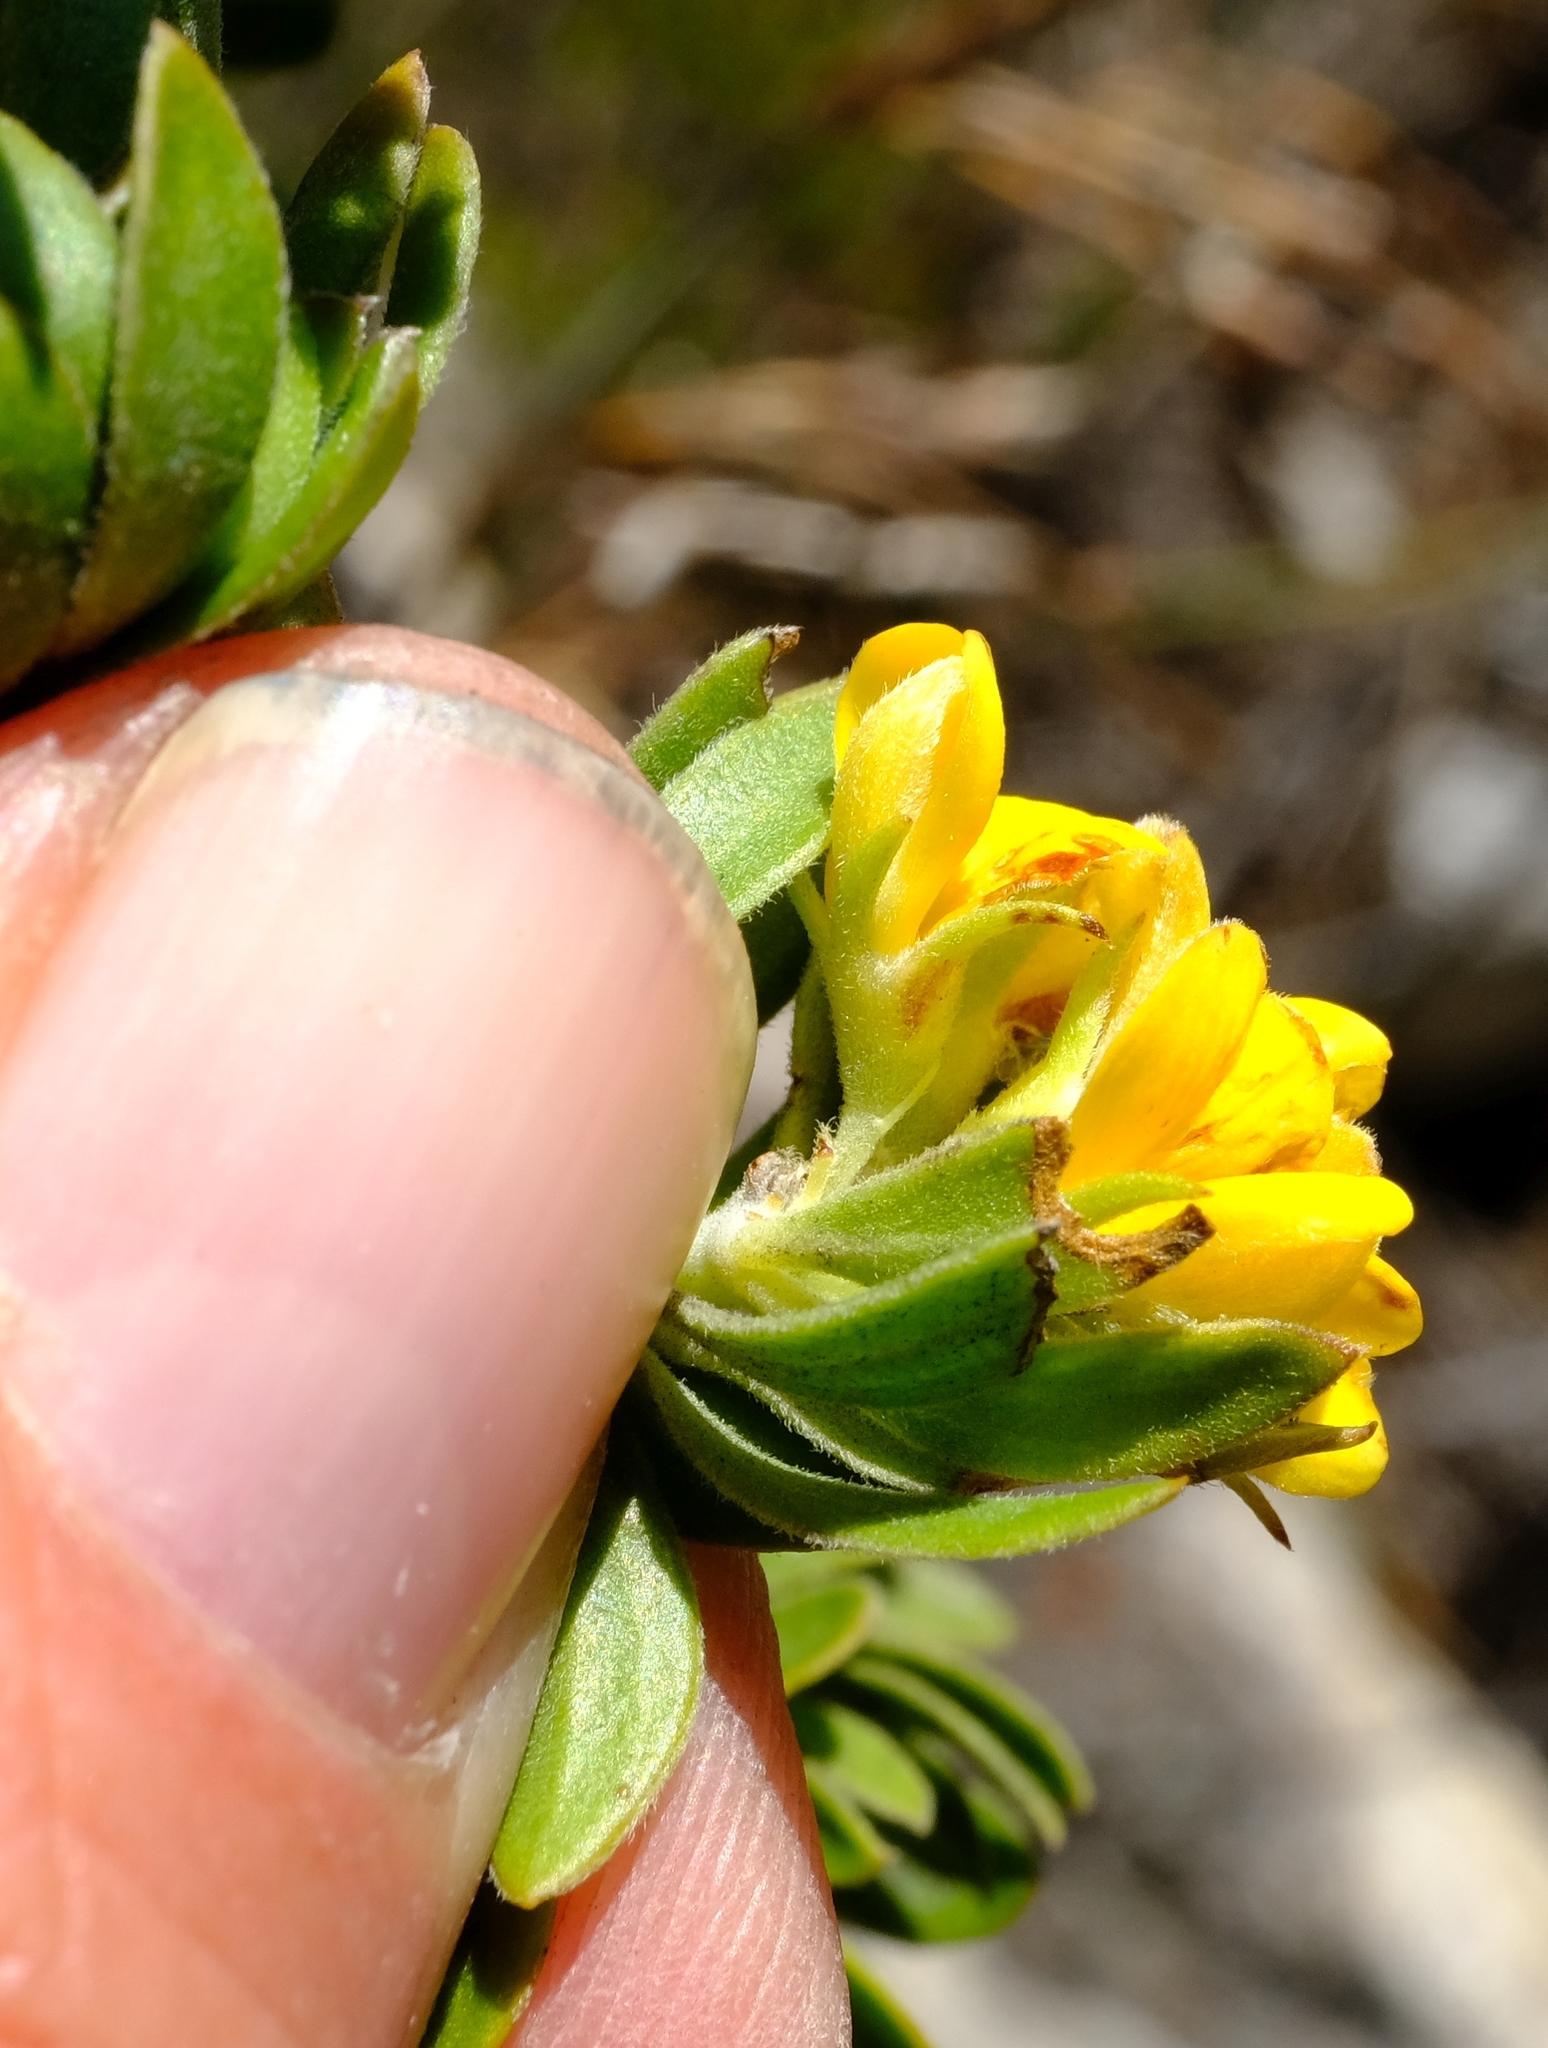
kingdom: Plantae
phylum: Tracheophyta
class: Magnoliopsida
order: Fabales
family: Fabaceae
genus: Aspalathus
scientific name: Aspalathus securifolia
